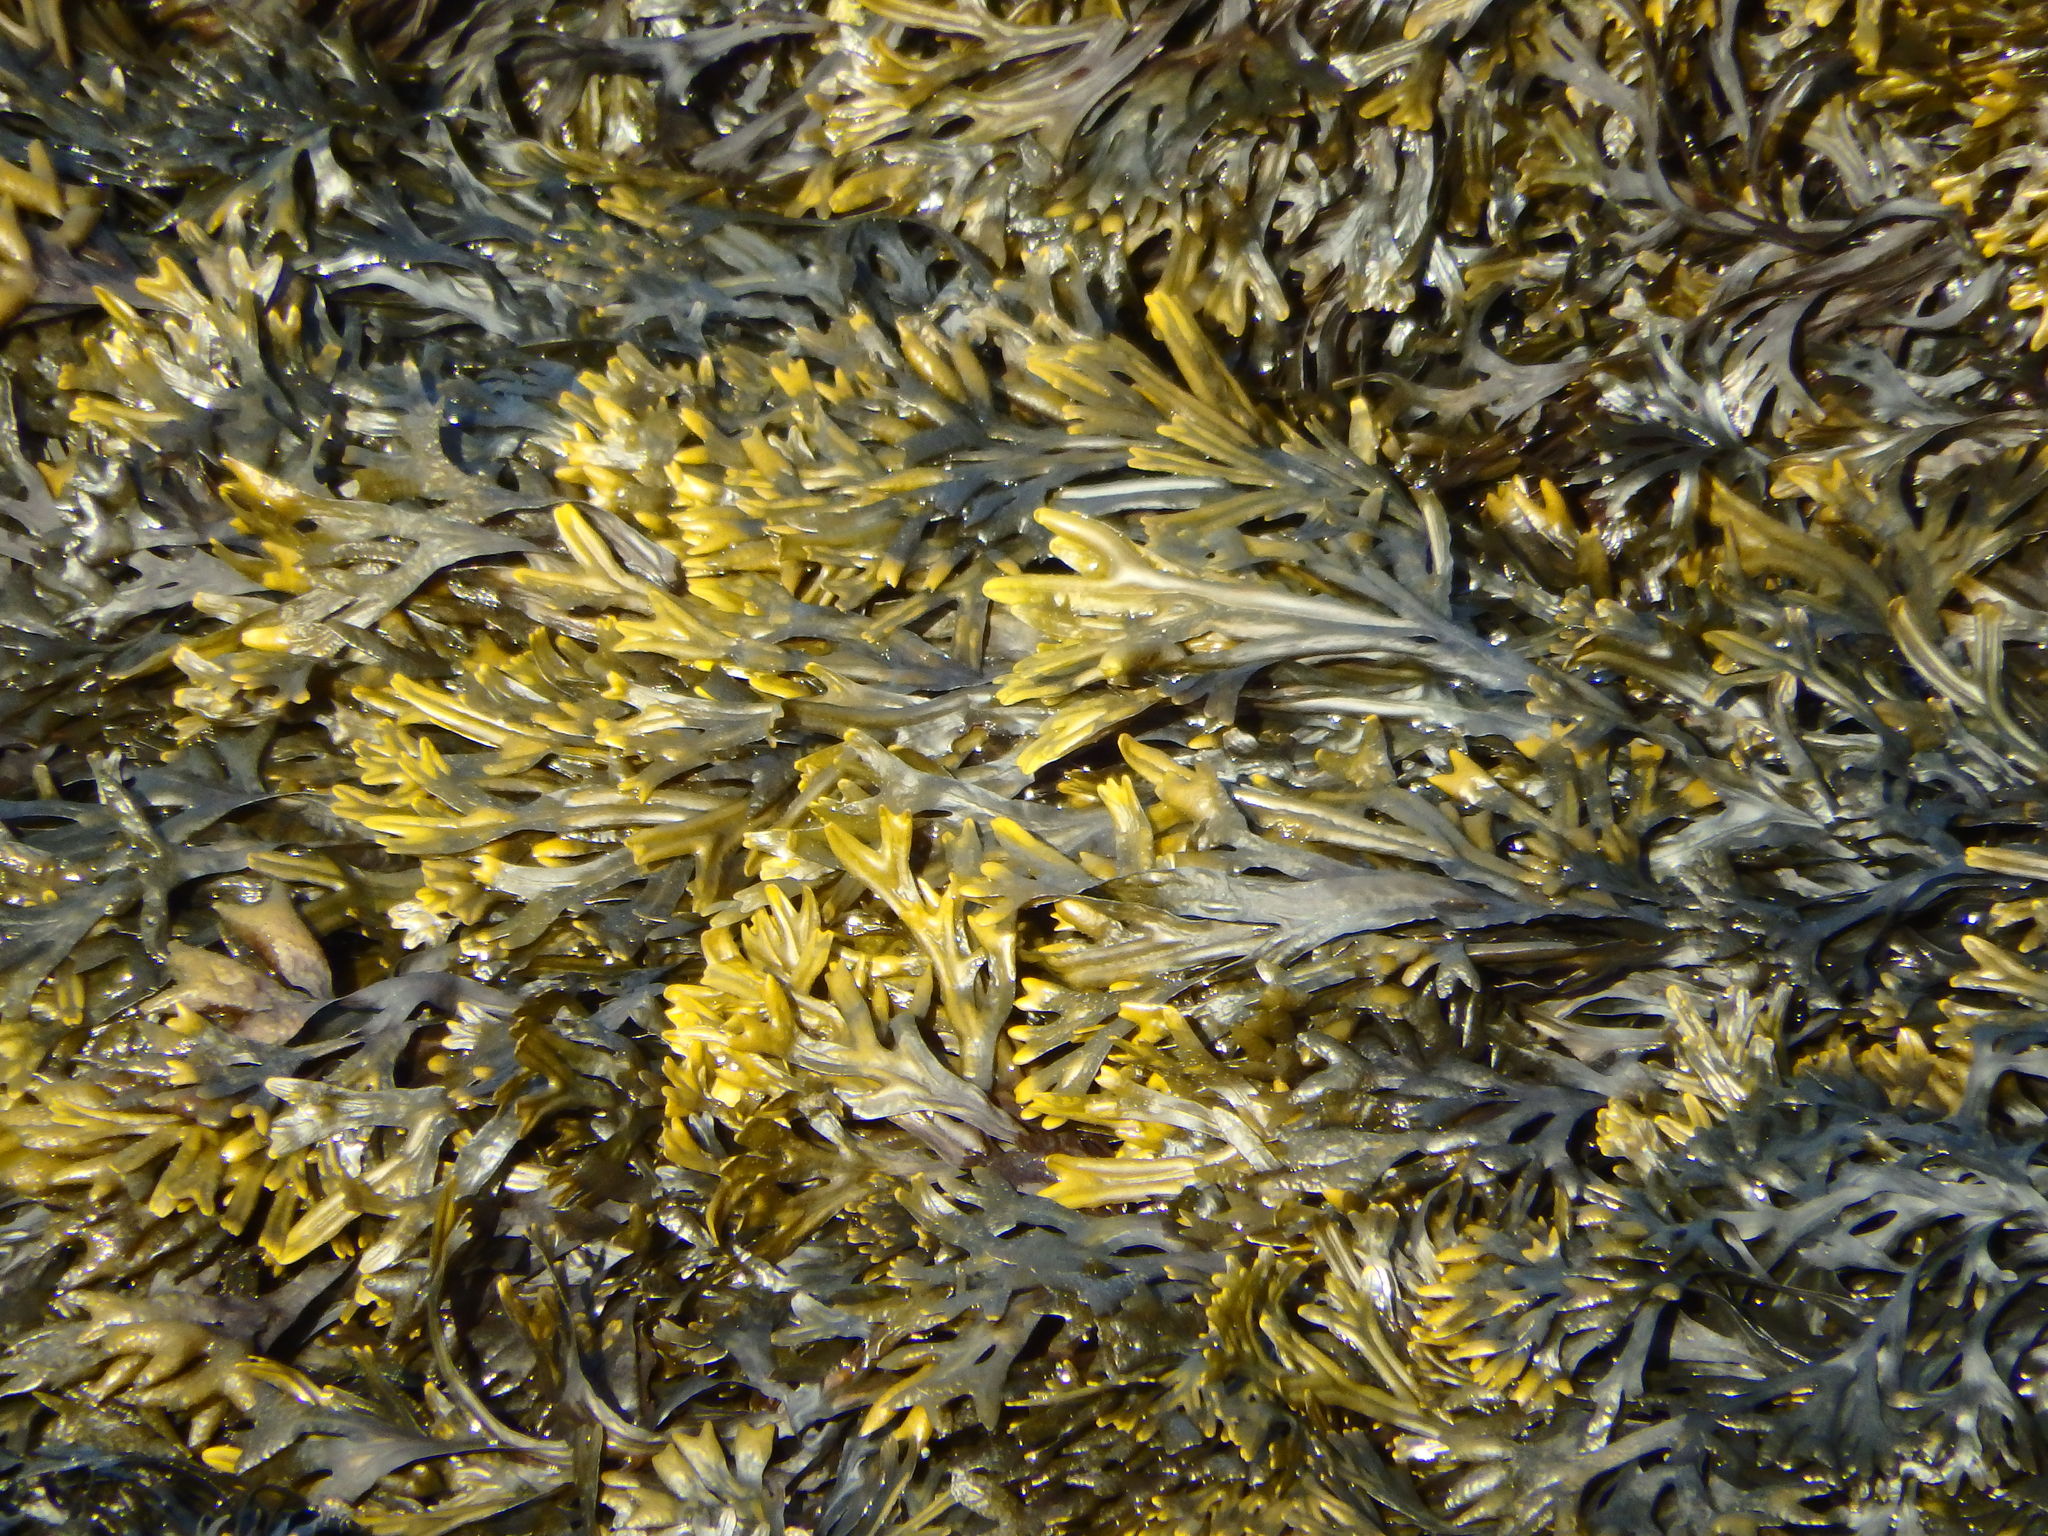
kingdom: Chromista
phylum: Ochrophyta
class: Phaeophyceae
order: Fucales
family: Fucaceae
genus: Fucus
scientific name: Fucus ceranoides
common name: Horned wrack
